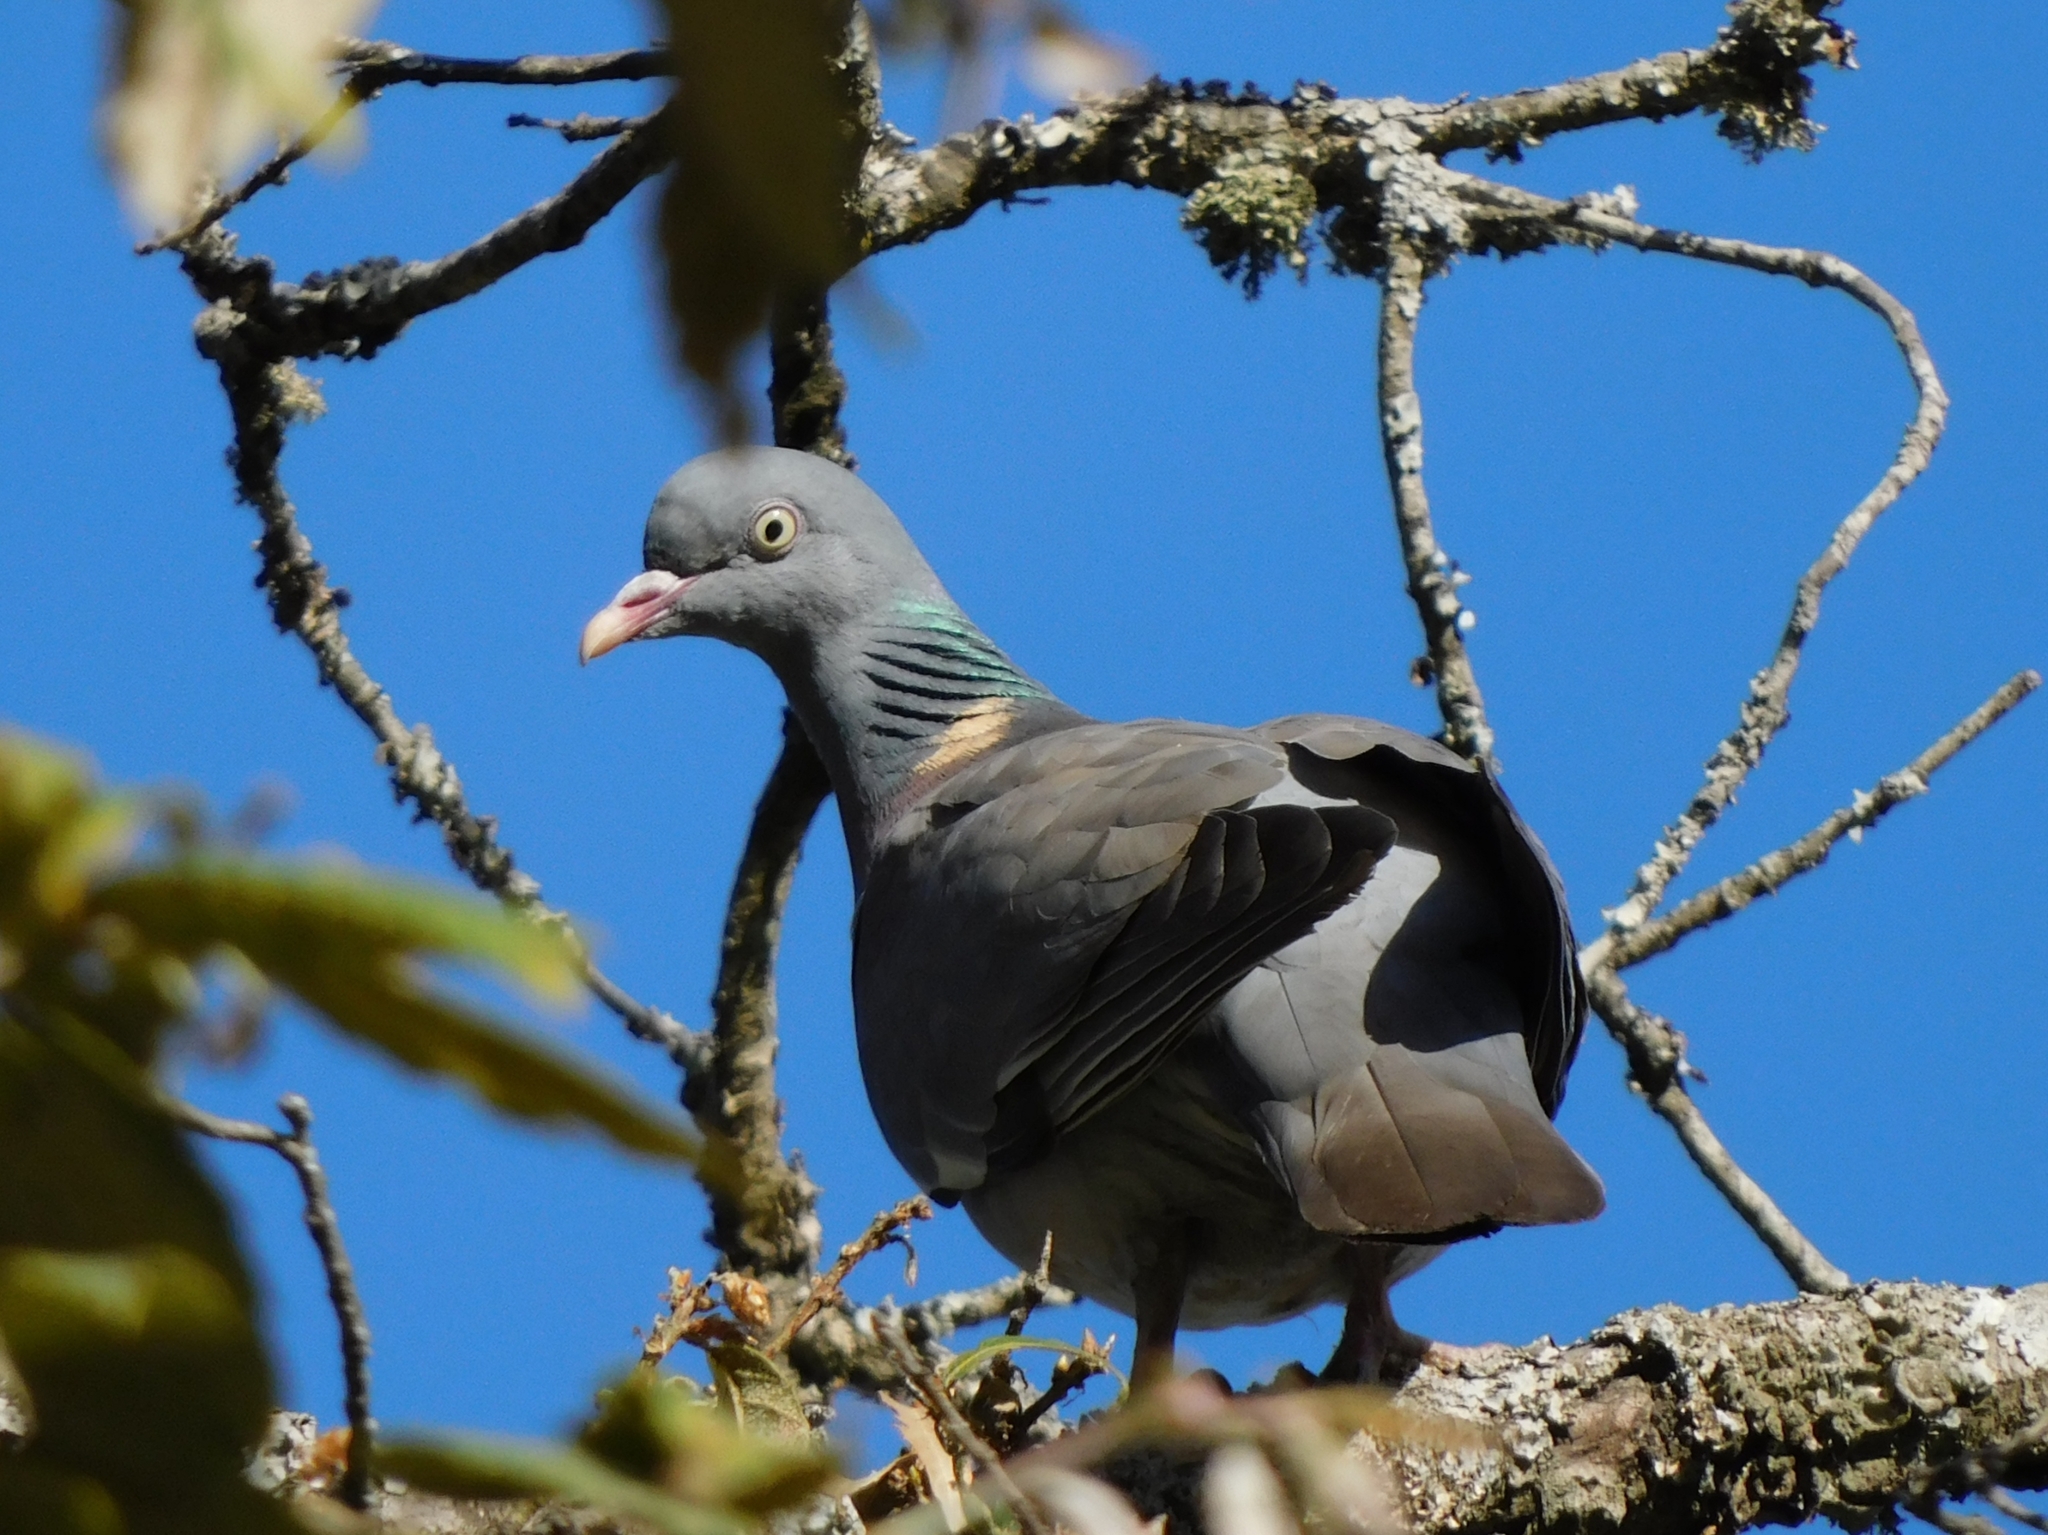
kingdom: Animalia
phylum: Chordata
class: Aves
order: Columbiformes
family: Columbidae
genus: Columba
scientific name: Columba palumbus
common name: Common wood pigeon
